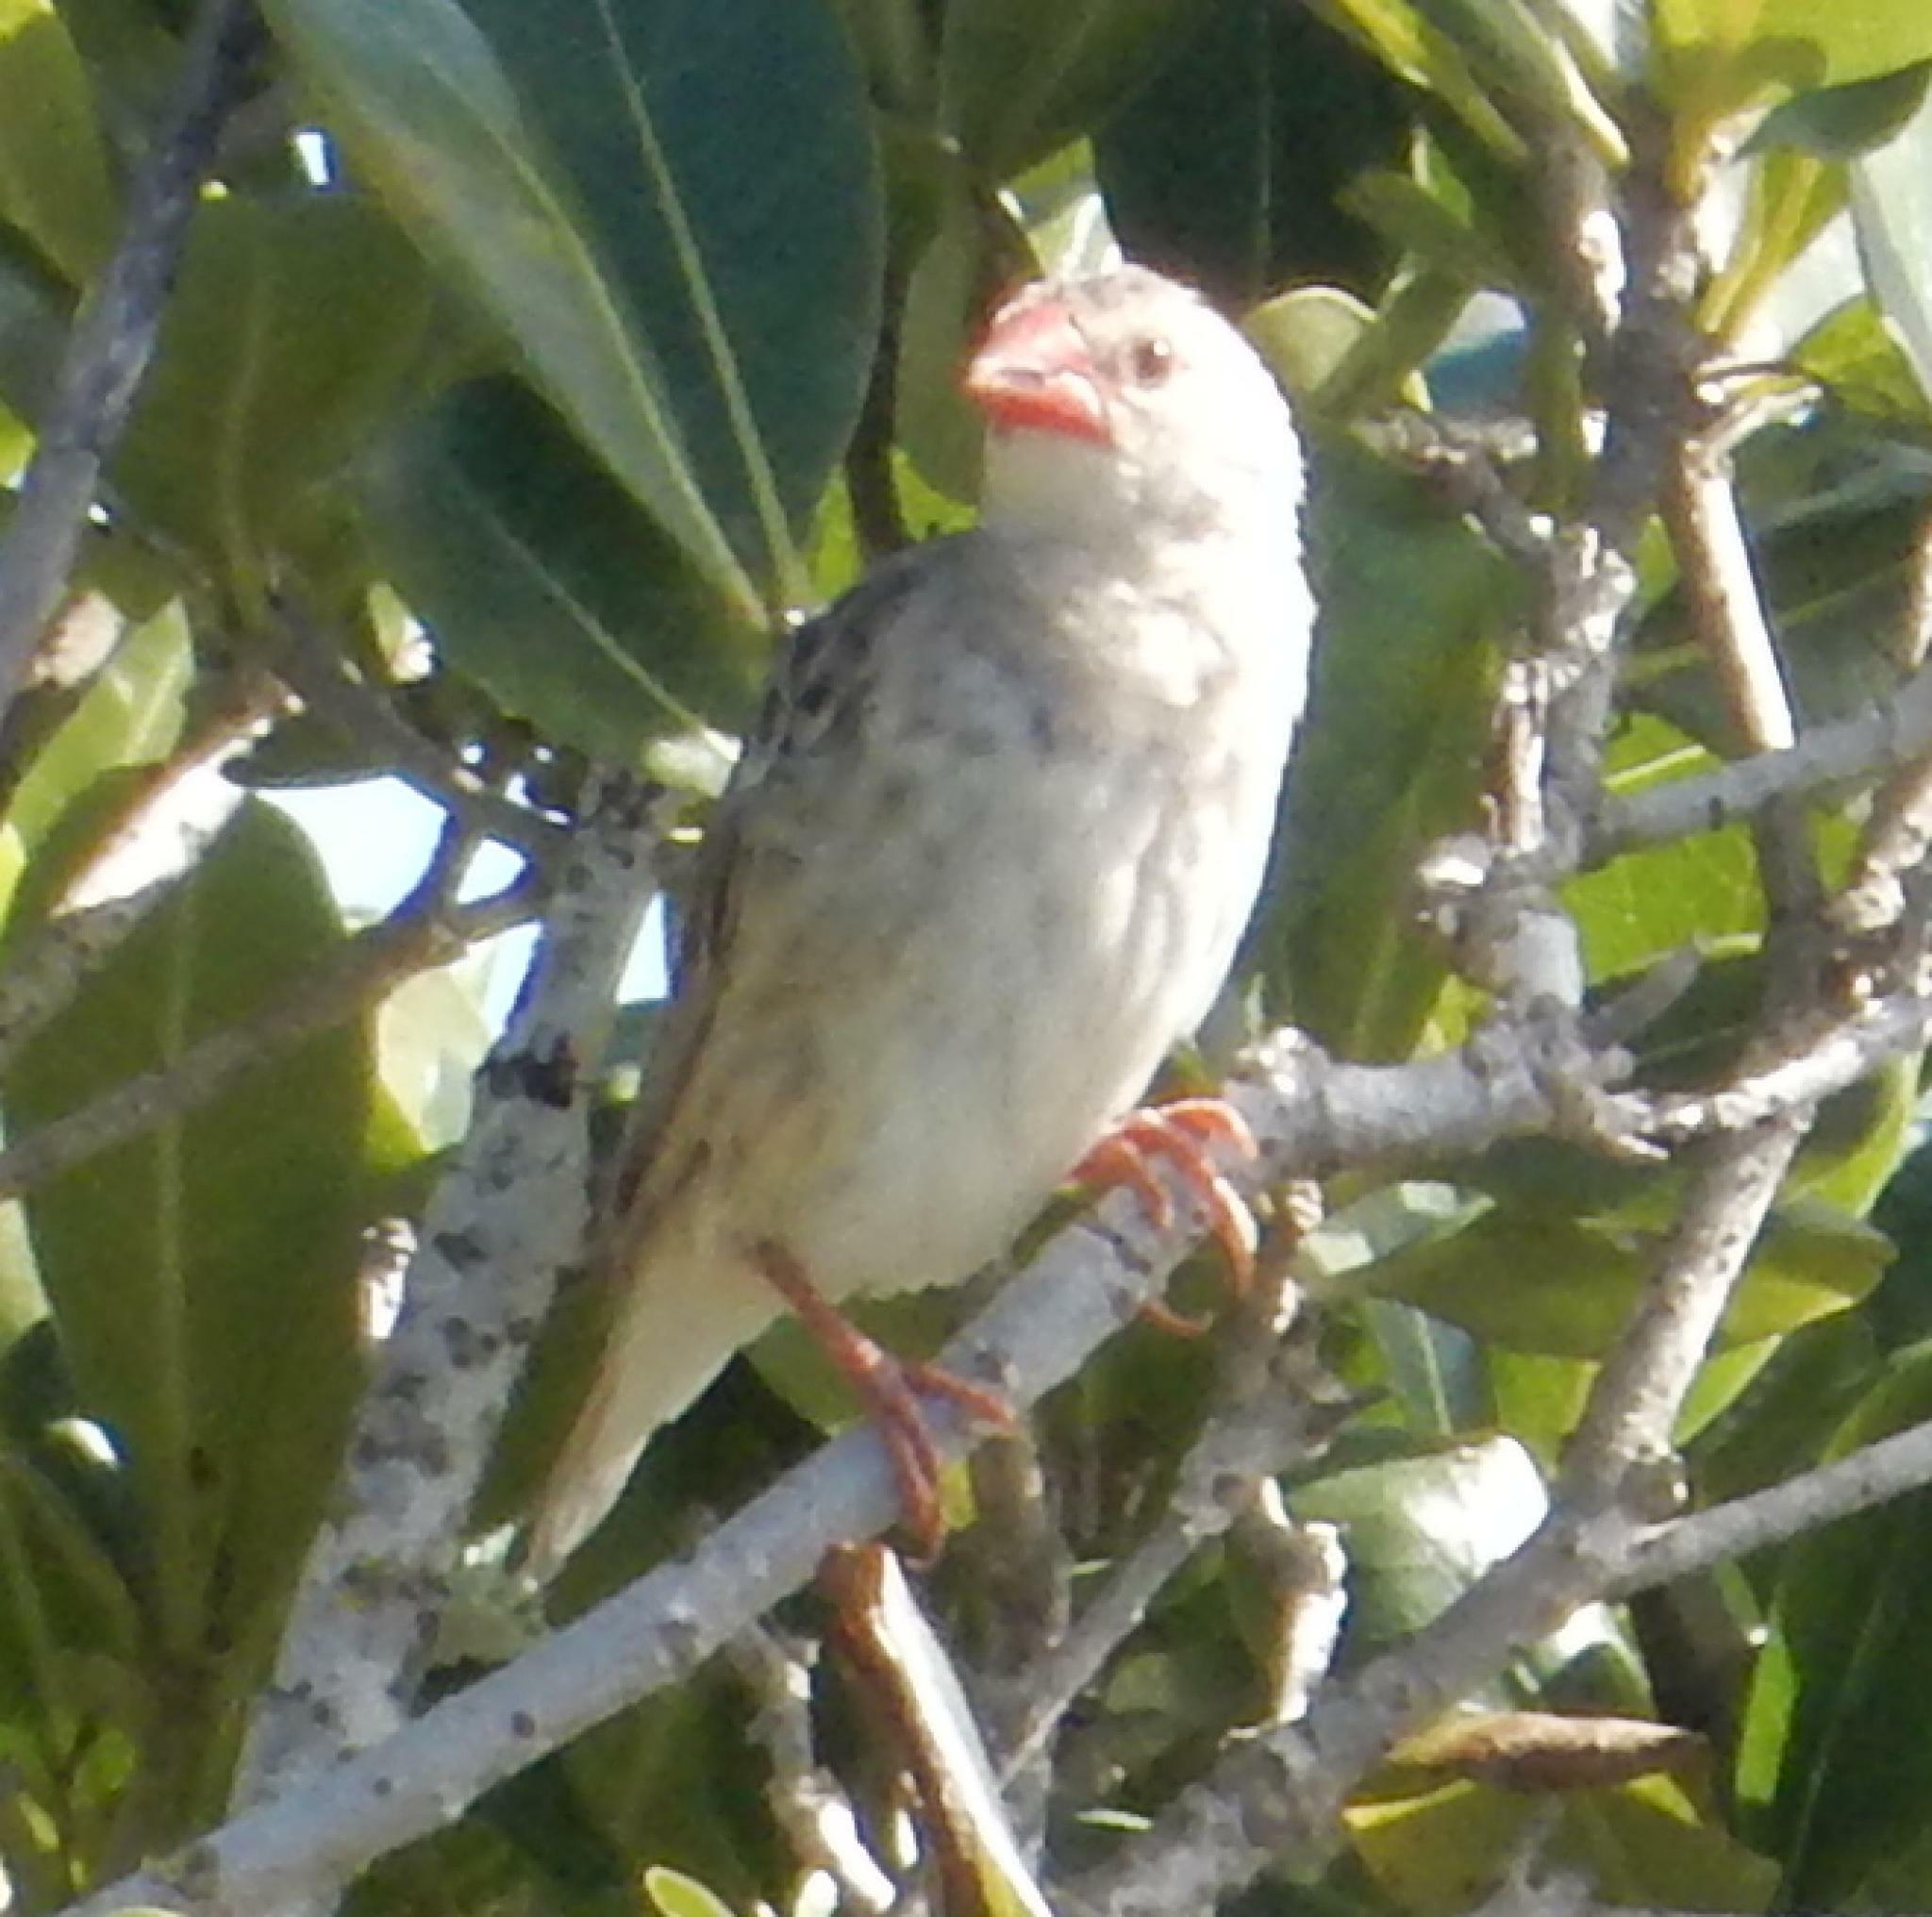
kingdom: Animalia
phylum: Chordata
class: Aves
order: Passeriformes
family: Ploceidae
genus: Quelea
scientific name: Quelea quelea
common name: Red-billed quelea
